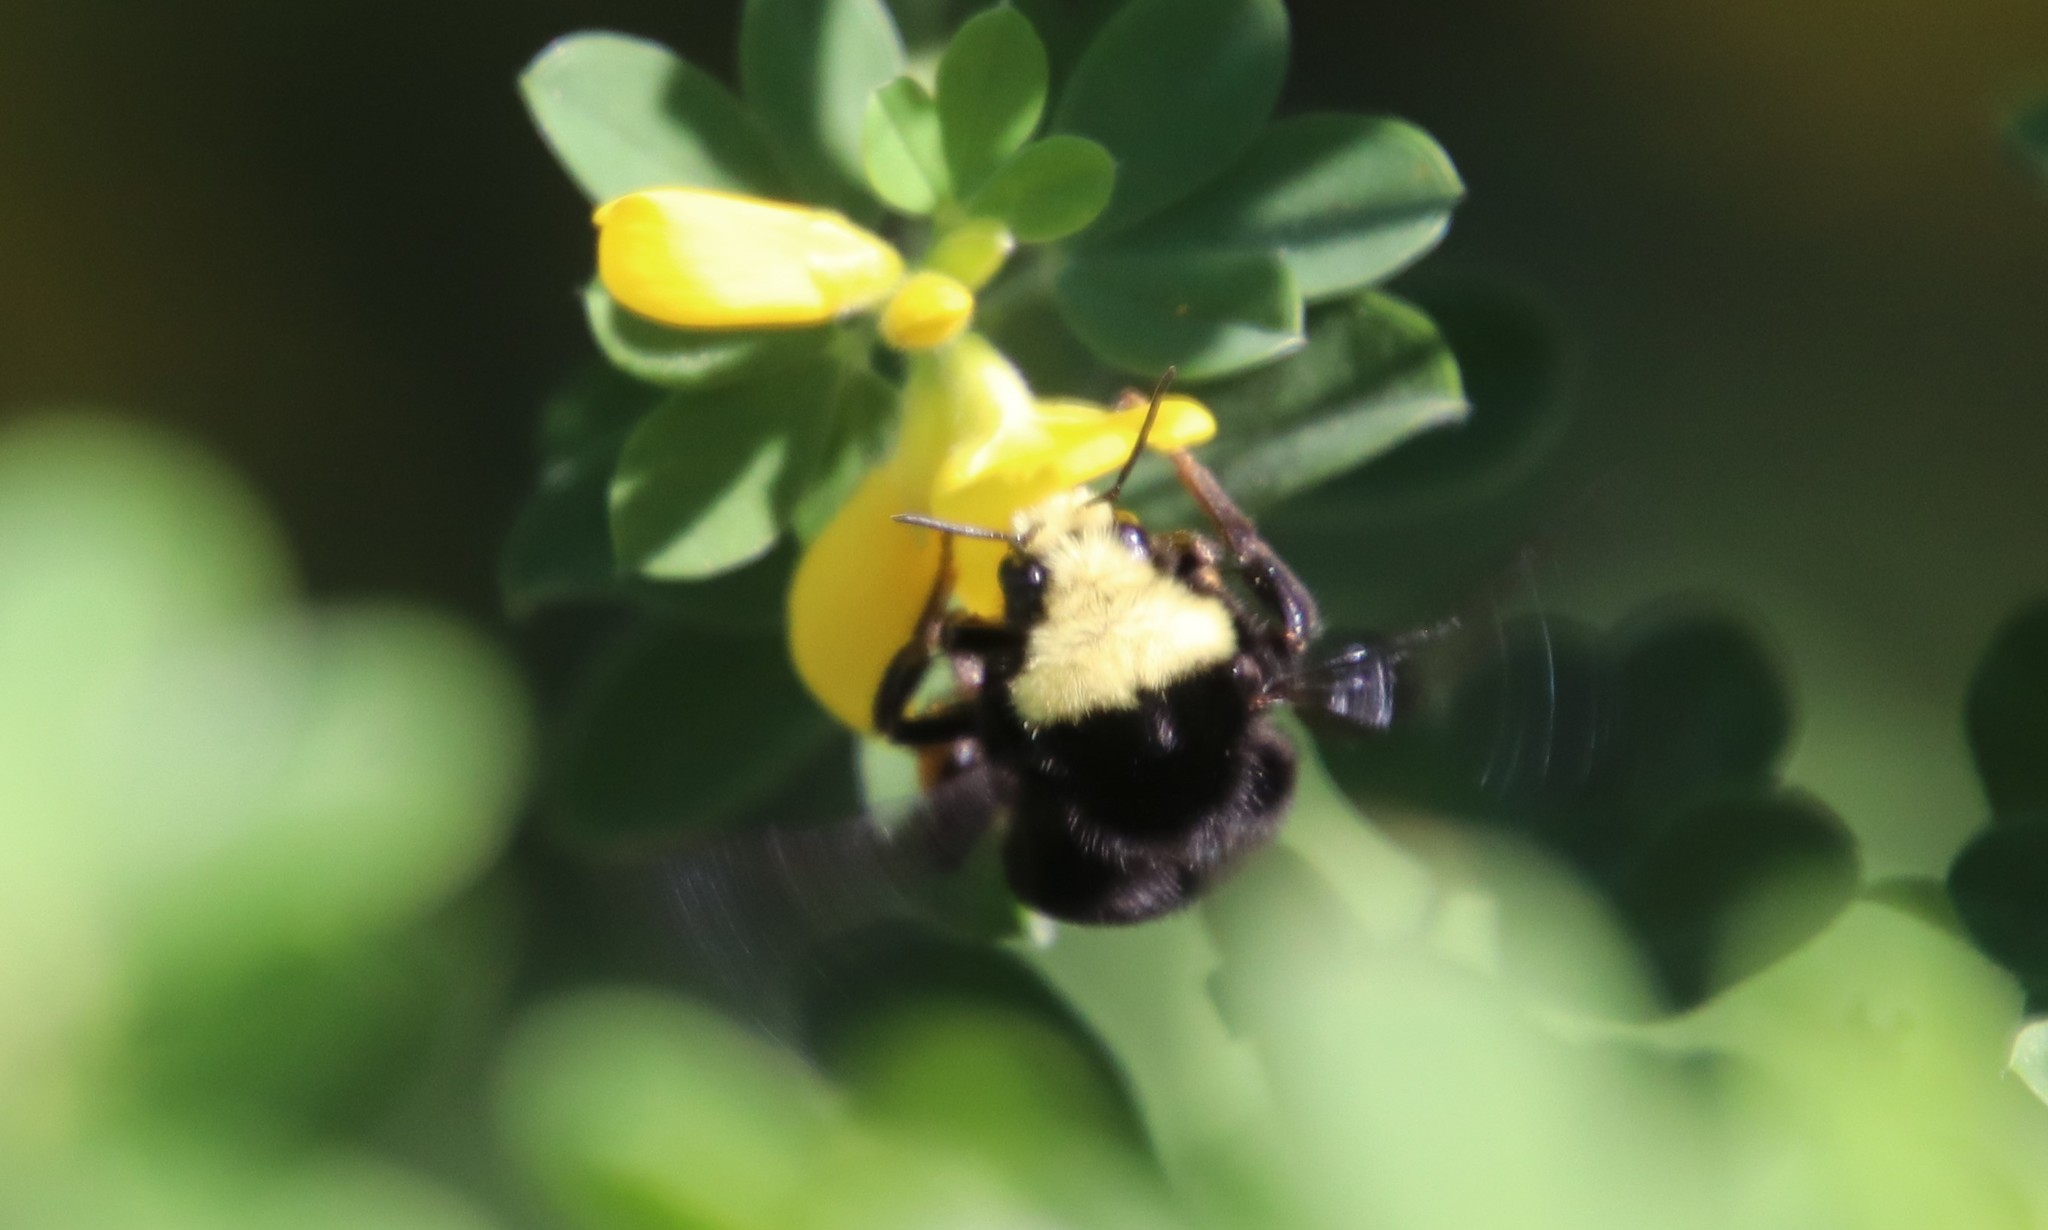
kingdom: Animalia
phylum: Arthropoda
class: Insecta
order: Hymenoptera
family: Apidae
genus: Bombus
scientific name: Bombus vosnesenskii
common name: Vosnesensky bumble bee
